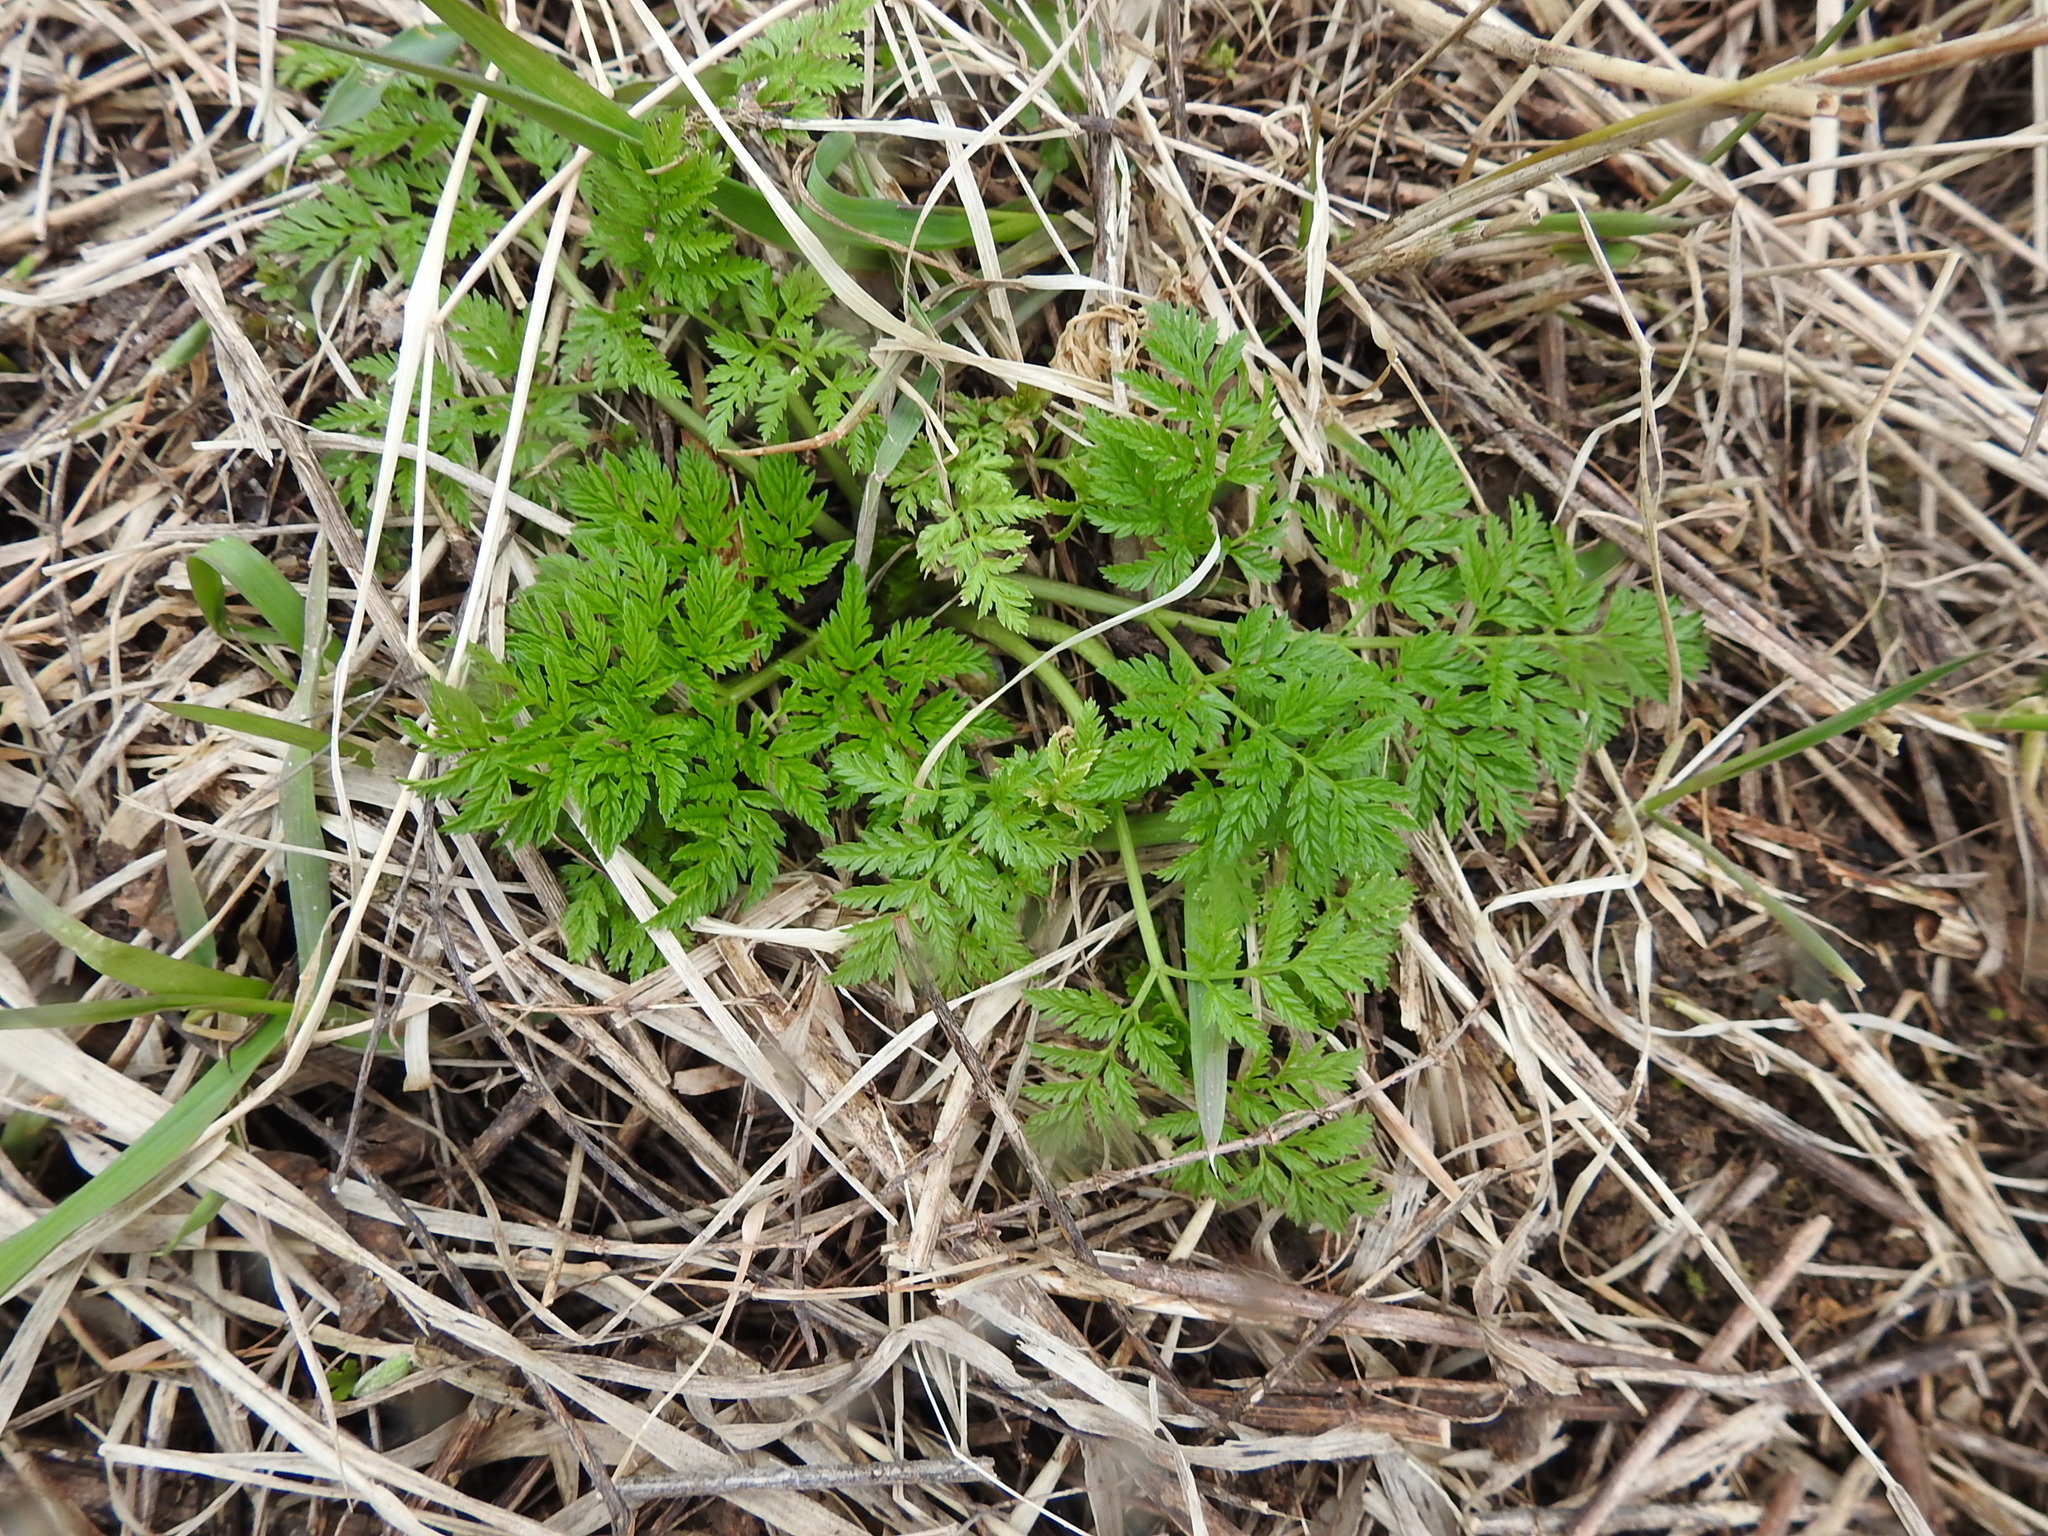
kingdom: Plantae
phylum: Tracheophyta
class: Magnoliopsida
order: Apiales
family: Apiaceae
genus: Anthriscus
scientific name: Anthriscus sylvestris
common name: Cow parsley
